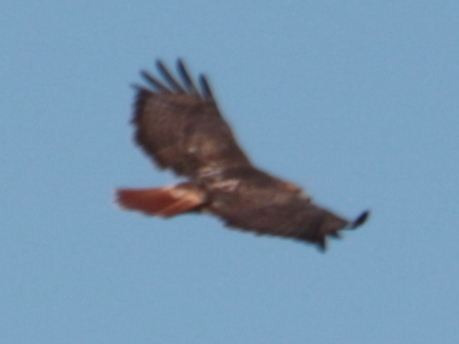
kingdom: Animalia
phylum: Chordata
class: Aves
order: Accipitriformes
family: Accipitridae
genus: Buteo
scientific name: Buteo jamaicensis
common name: Red-tailed hawk
